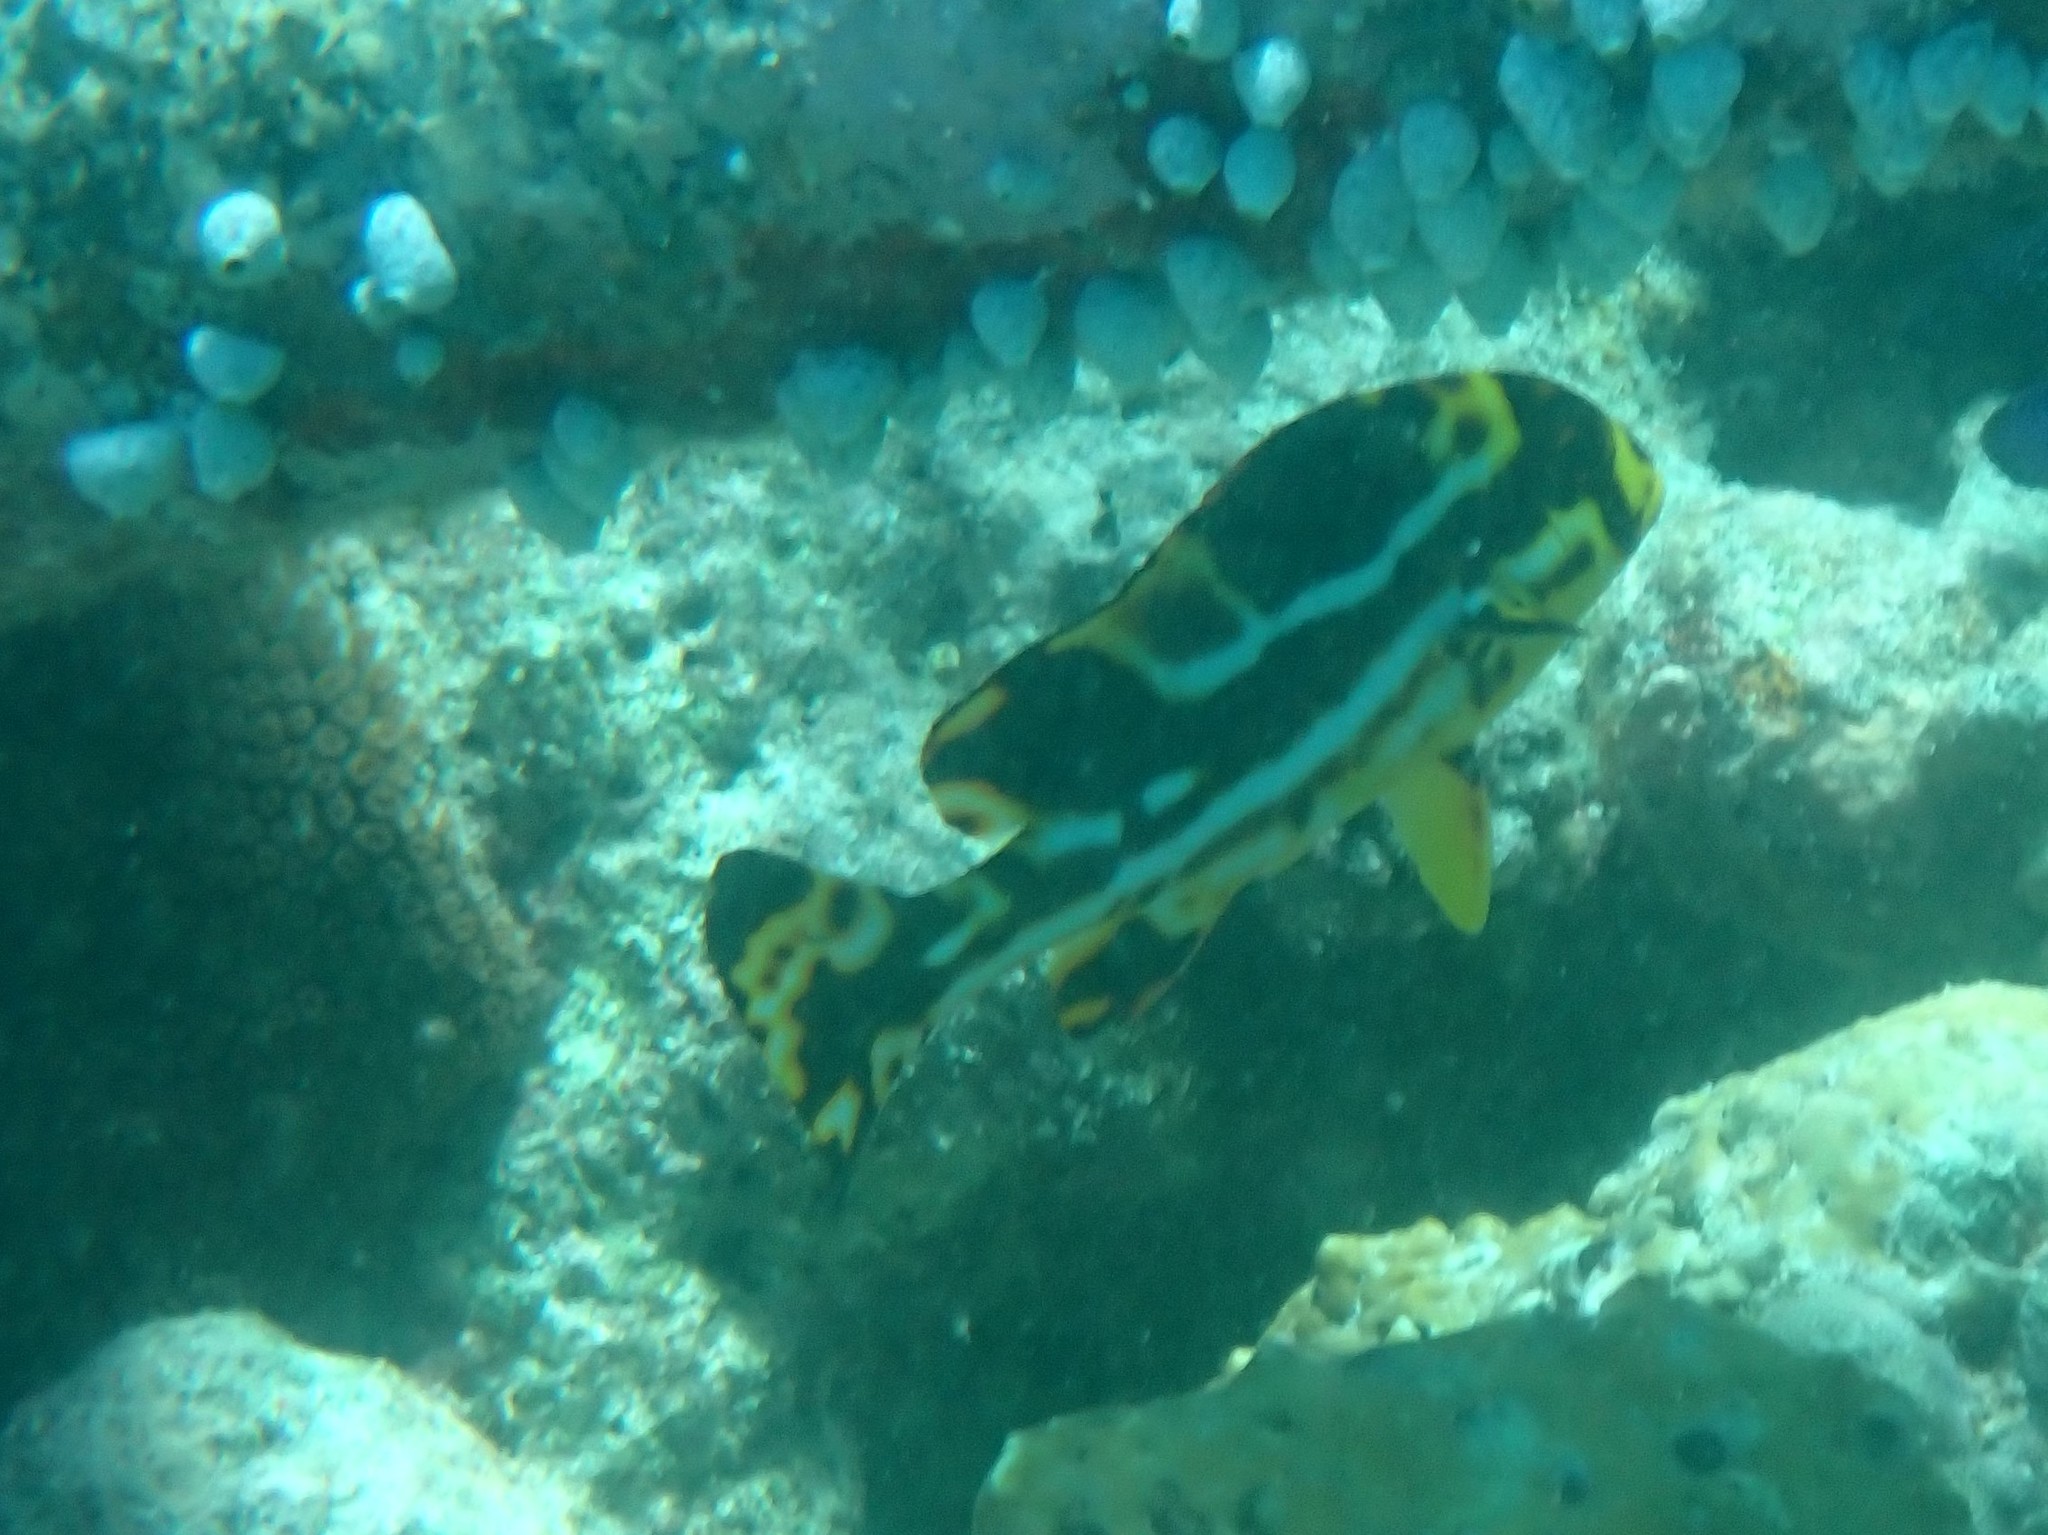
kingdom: Animalia
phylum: Chordata
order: Perciformes
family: Haemulidae
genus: Plectorhinchus
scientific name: Plectorhinchus vittatus
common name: Oriental sweetlips
